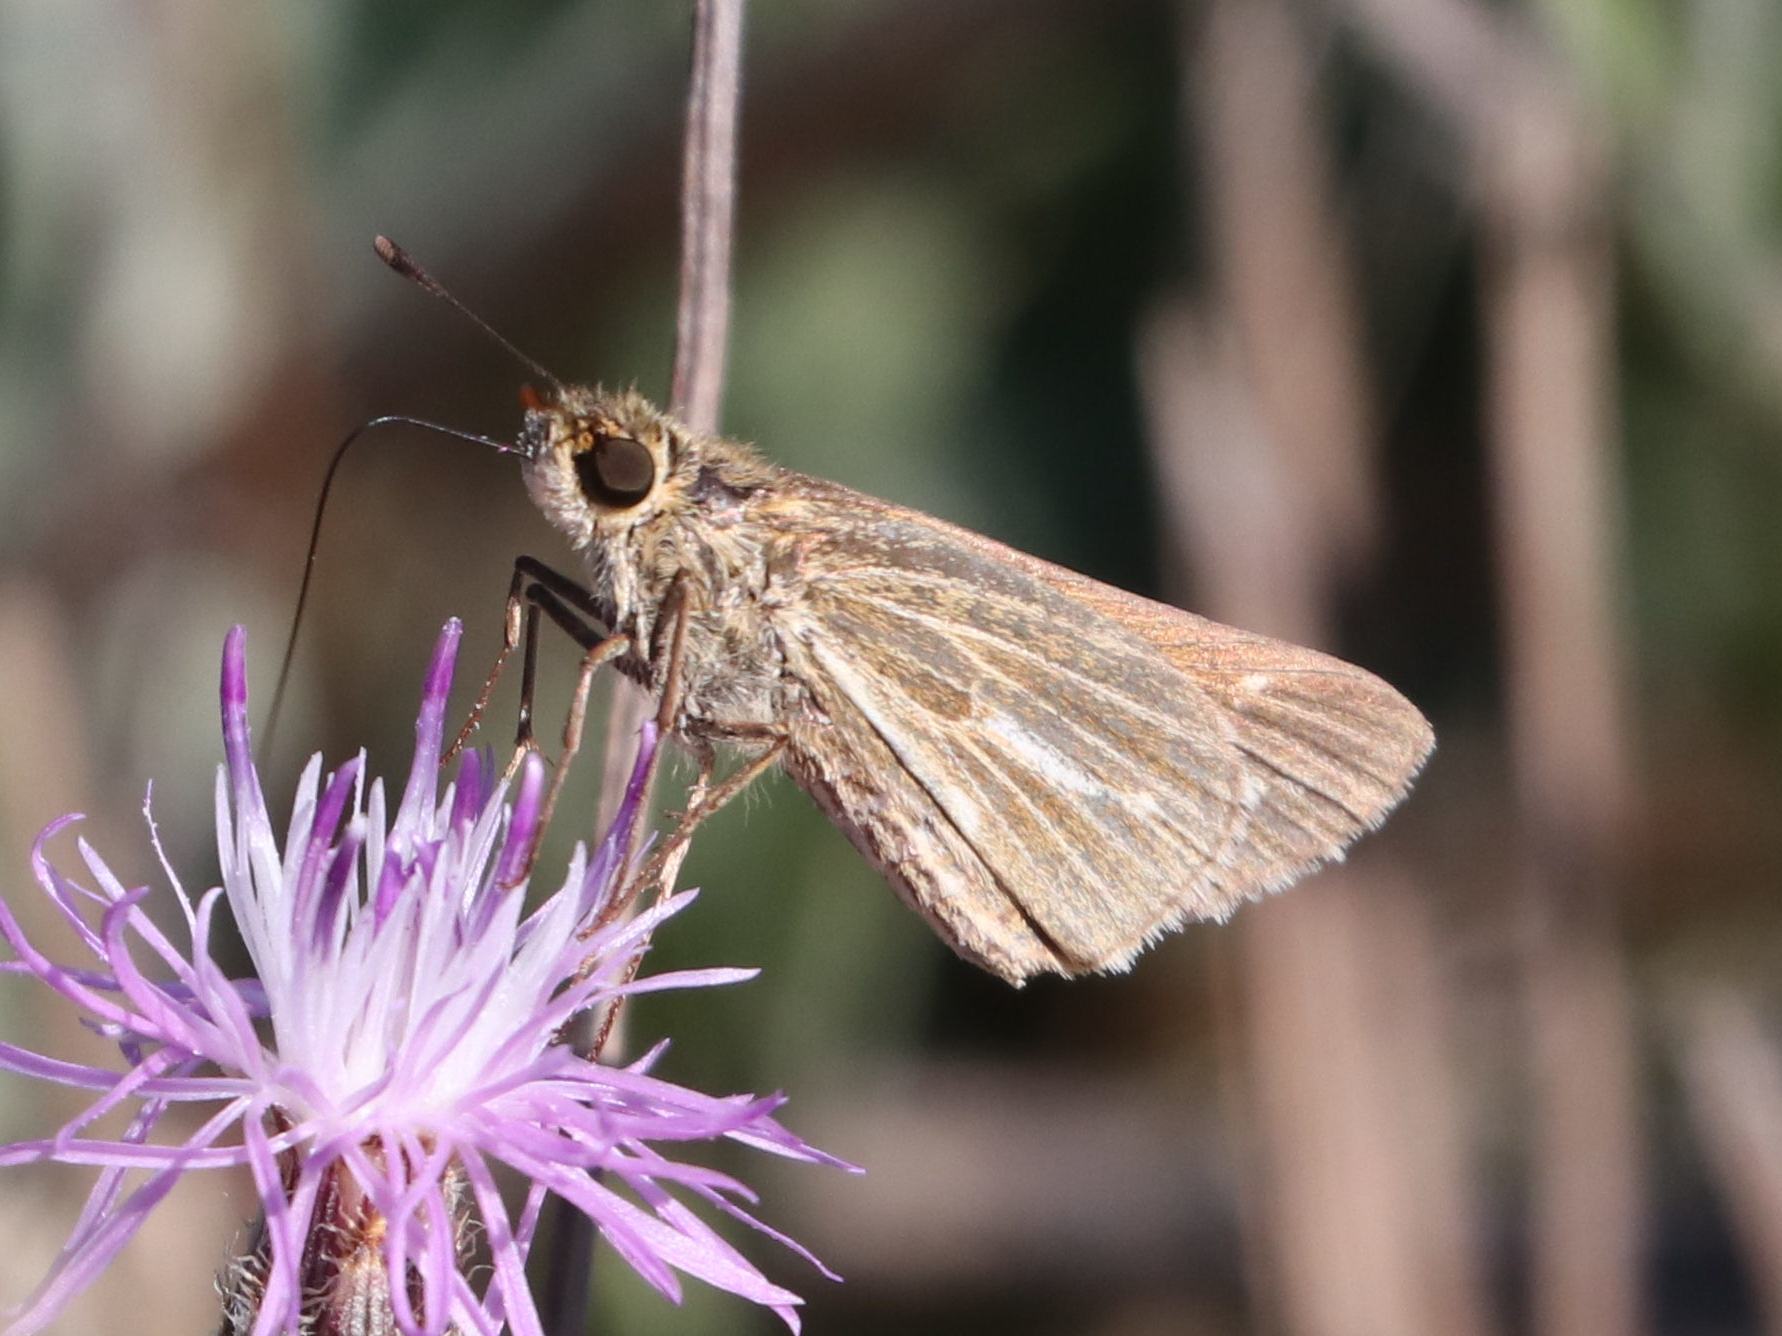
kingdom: Animalia
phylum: Arthropoda
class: Insecta
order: Lepidoptera
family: Hesperiidae
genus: Panoquina
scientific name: Panoquina panoquin
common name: Salt marsh skipper
